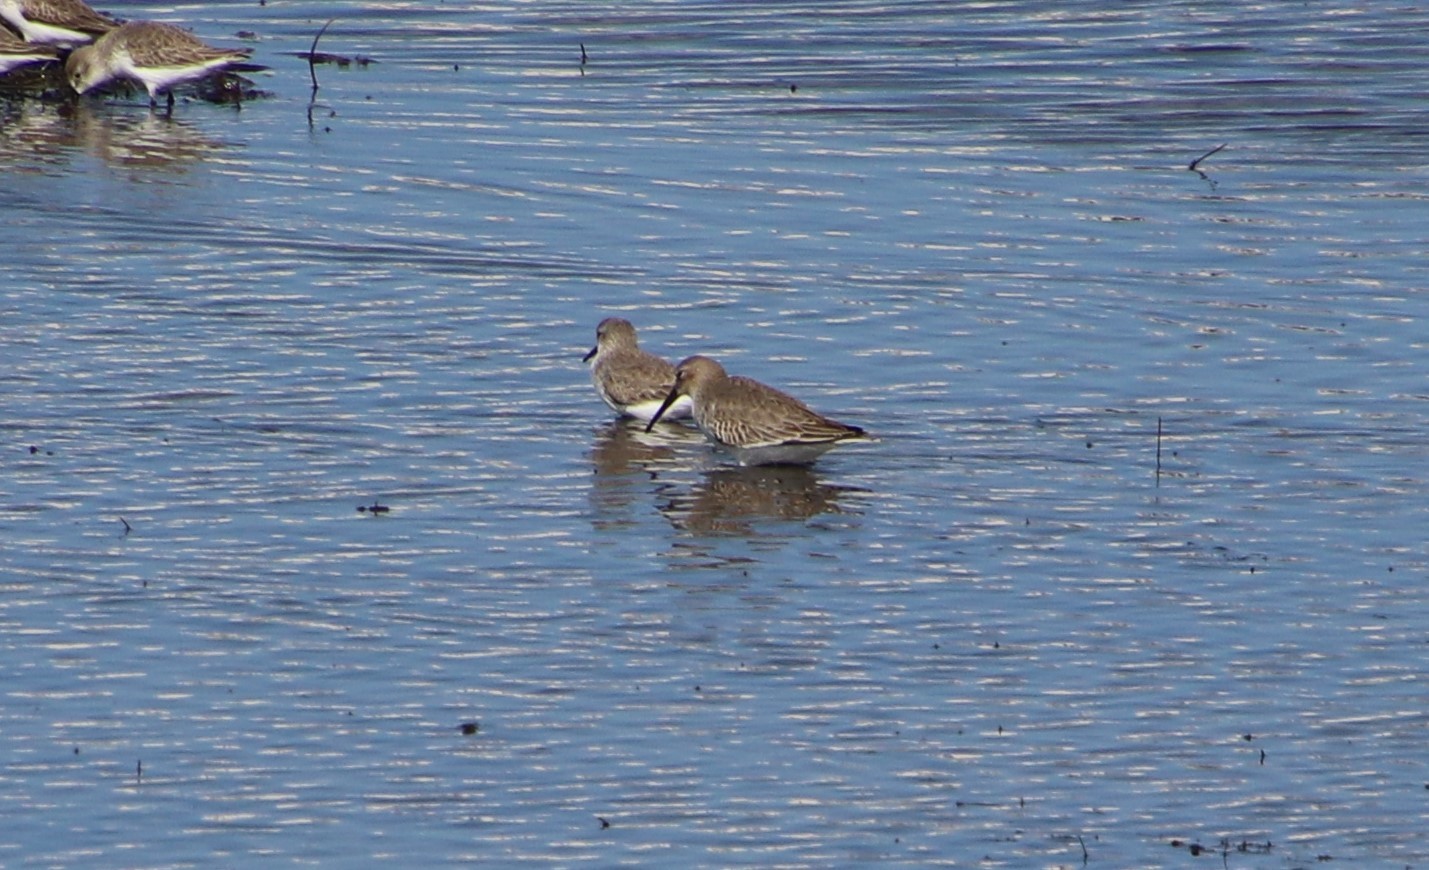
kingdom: Animalia
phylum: Chordata
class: Aves
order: Charadriiformes
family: Scolopacidae
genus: Calidris
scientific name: Calidris alpina
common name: Dunlin
